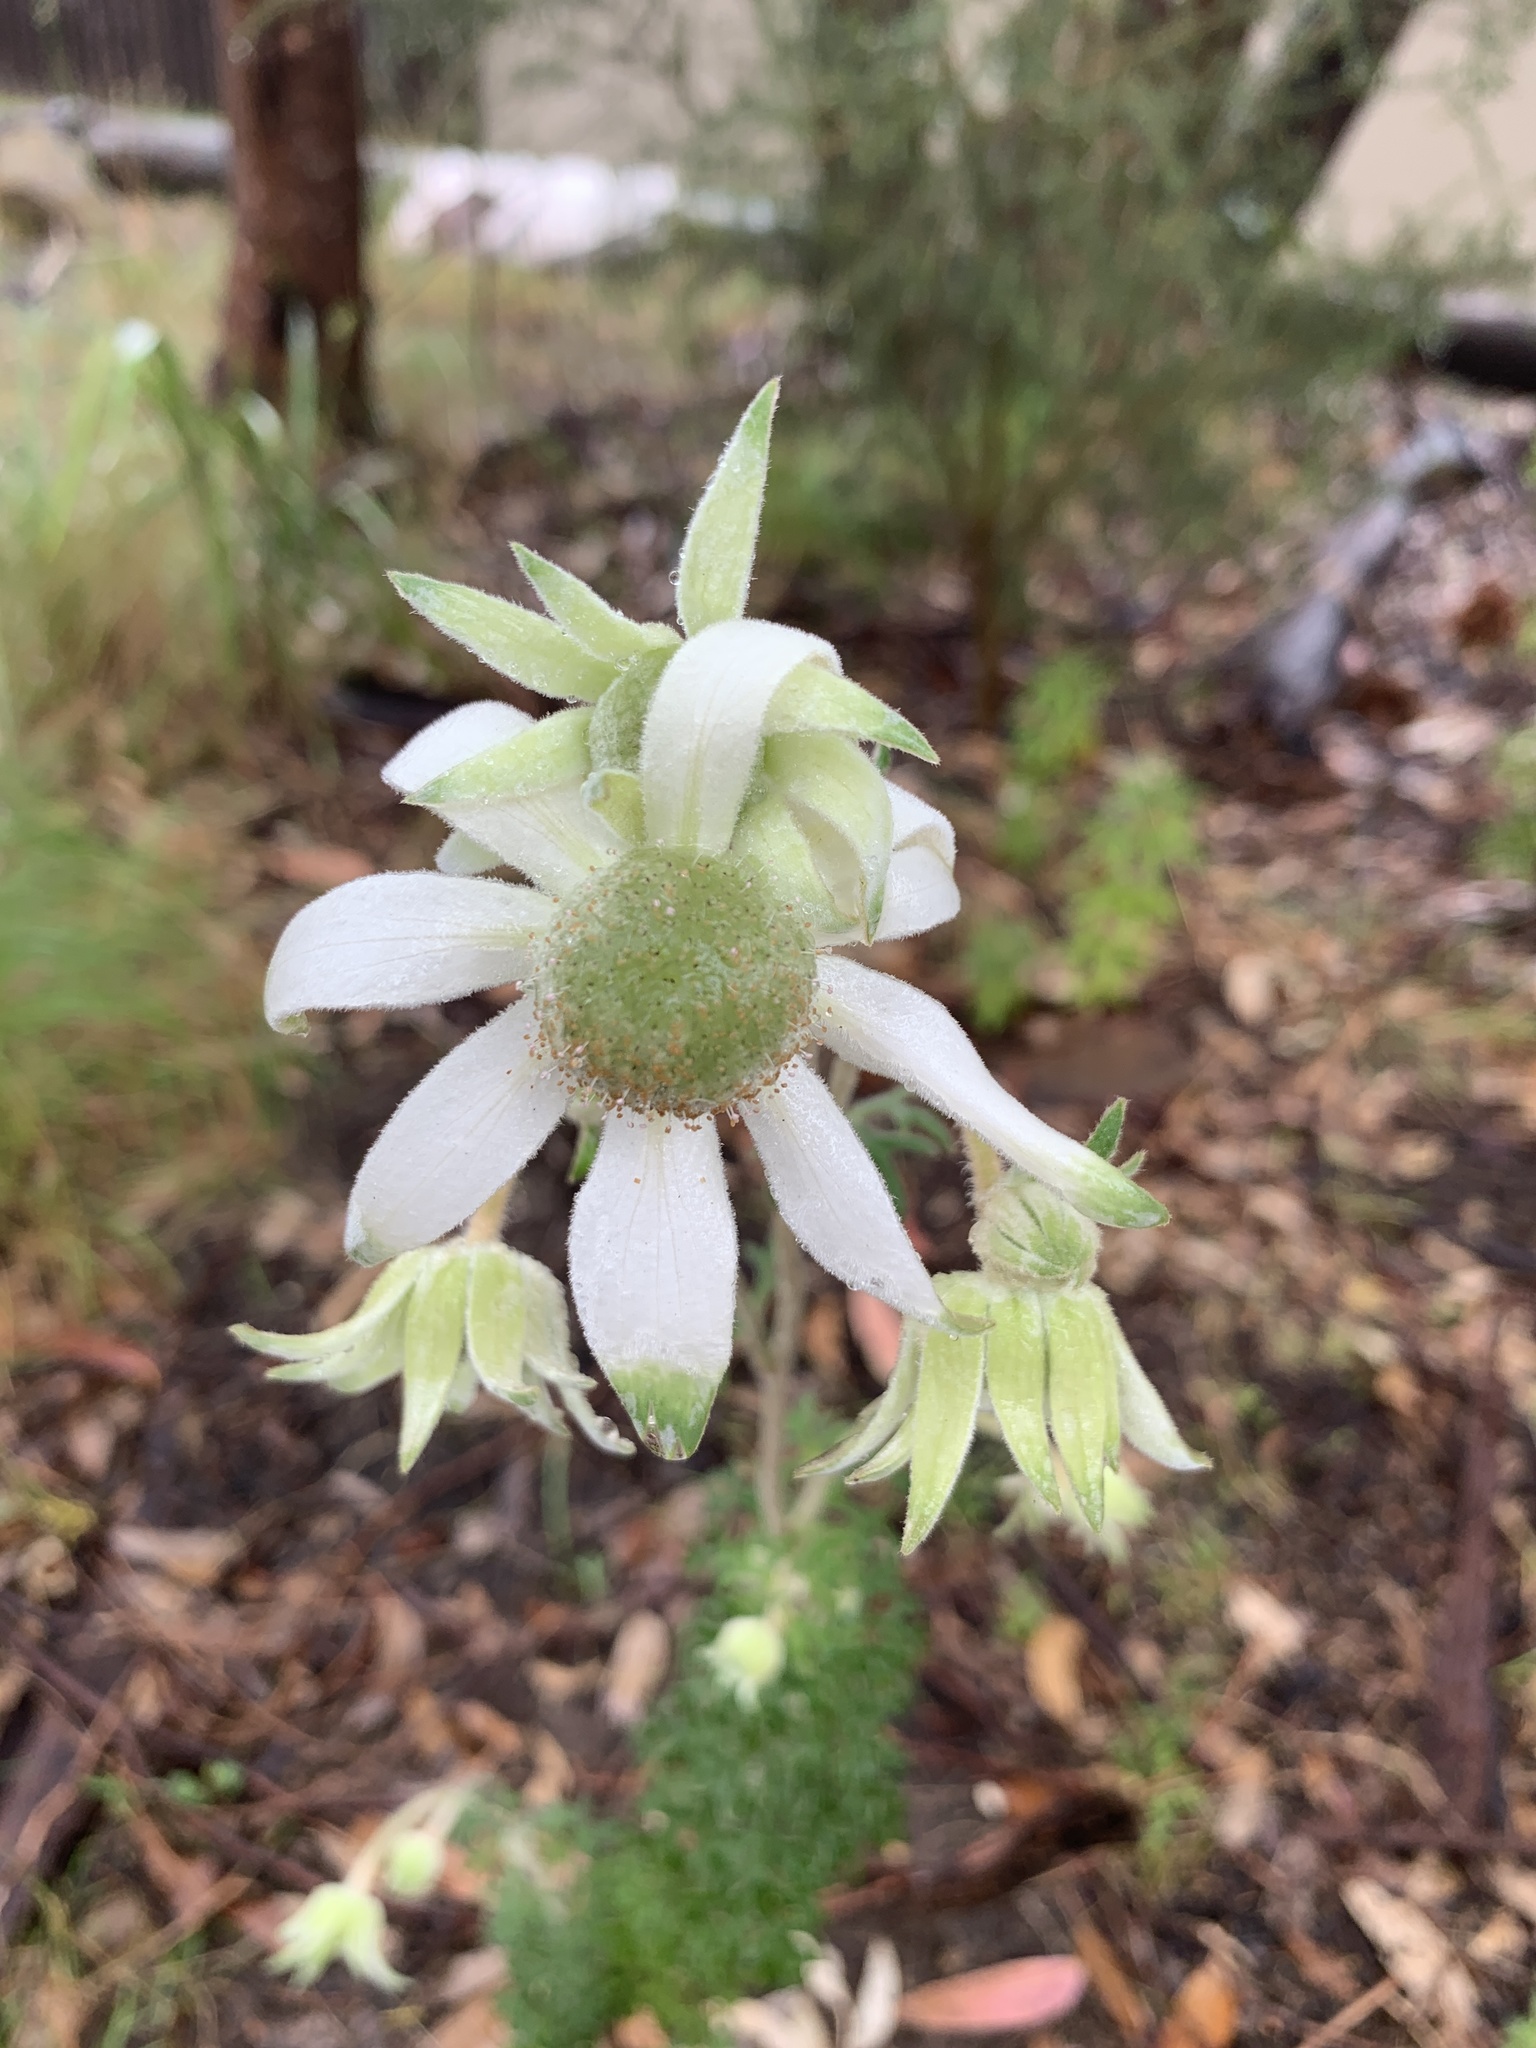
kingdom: Plantae
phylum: Tracheophyta
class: Magnoliopsida
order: Apiales
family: Apiaceae
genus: Actinotus
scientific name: Actinotus helianthi
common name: Flannel-flower
